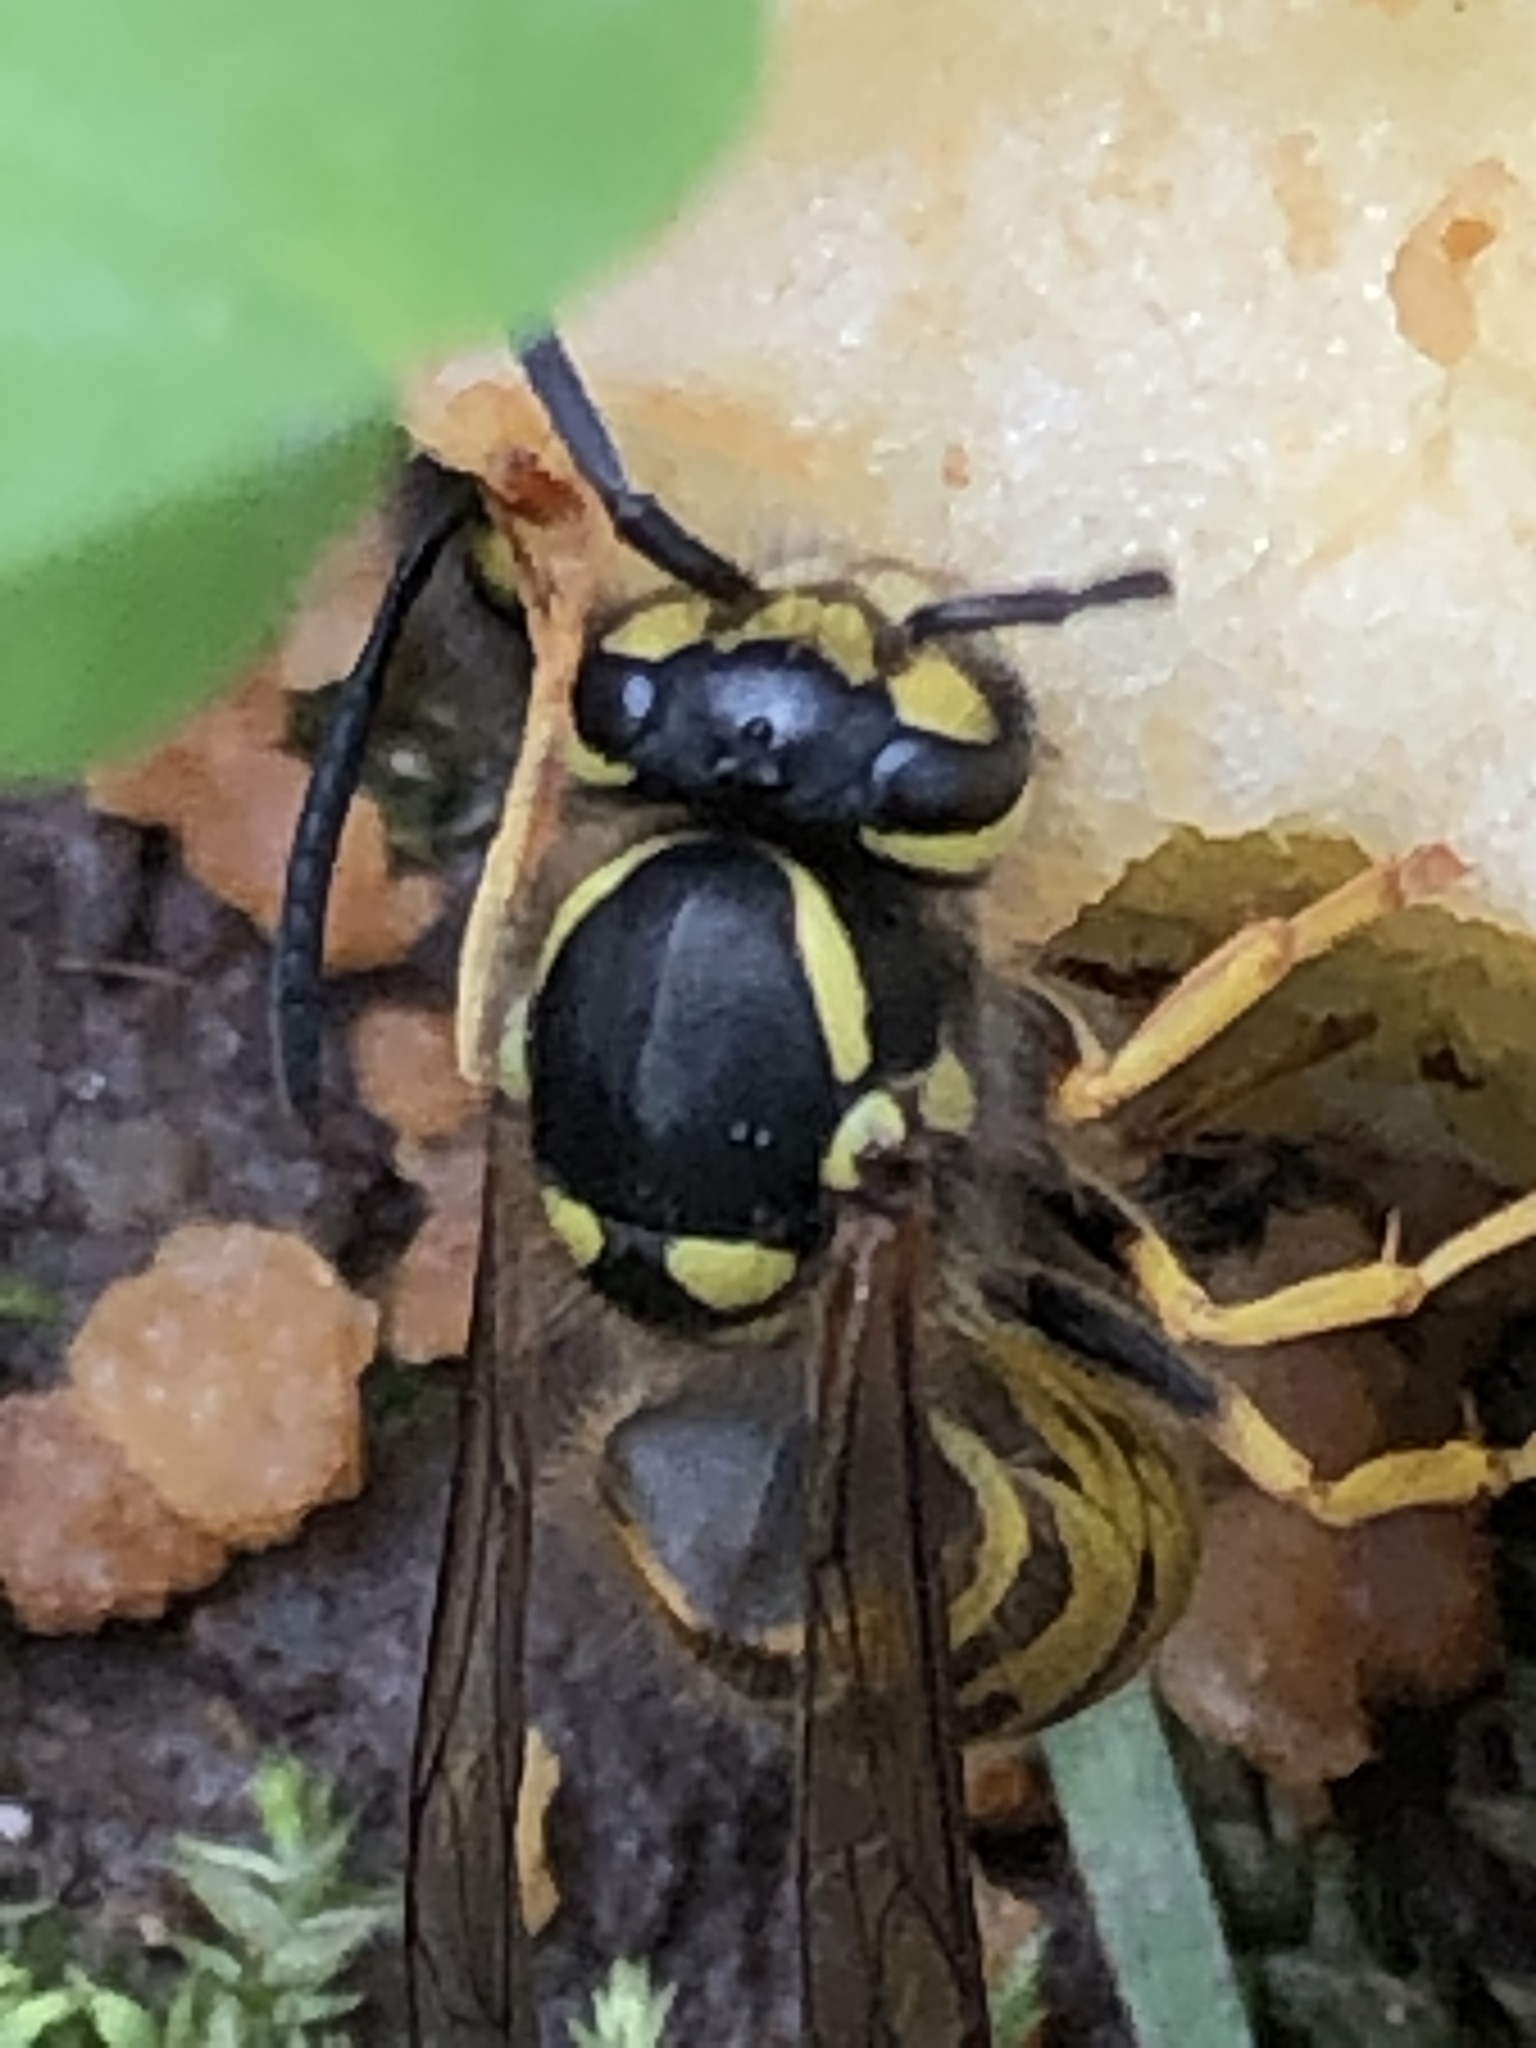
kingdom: Animalia
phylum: Arthropoda
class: Insecta
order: Hymenoptera
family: Vespidae
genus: Vespula
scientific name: Vespula germanica
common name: German wasp
